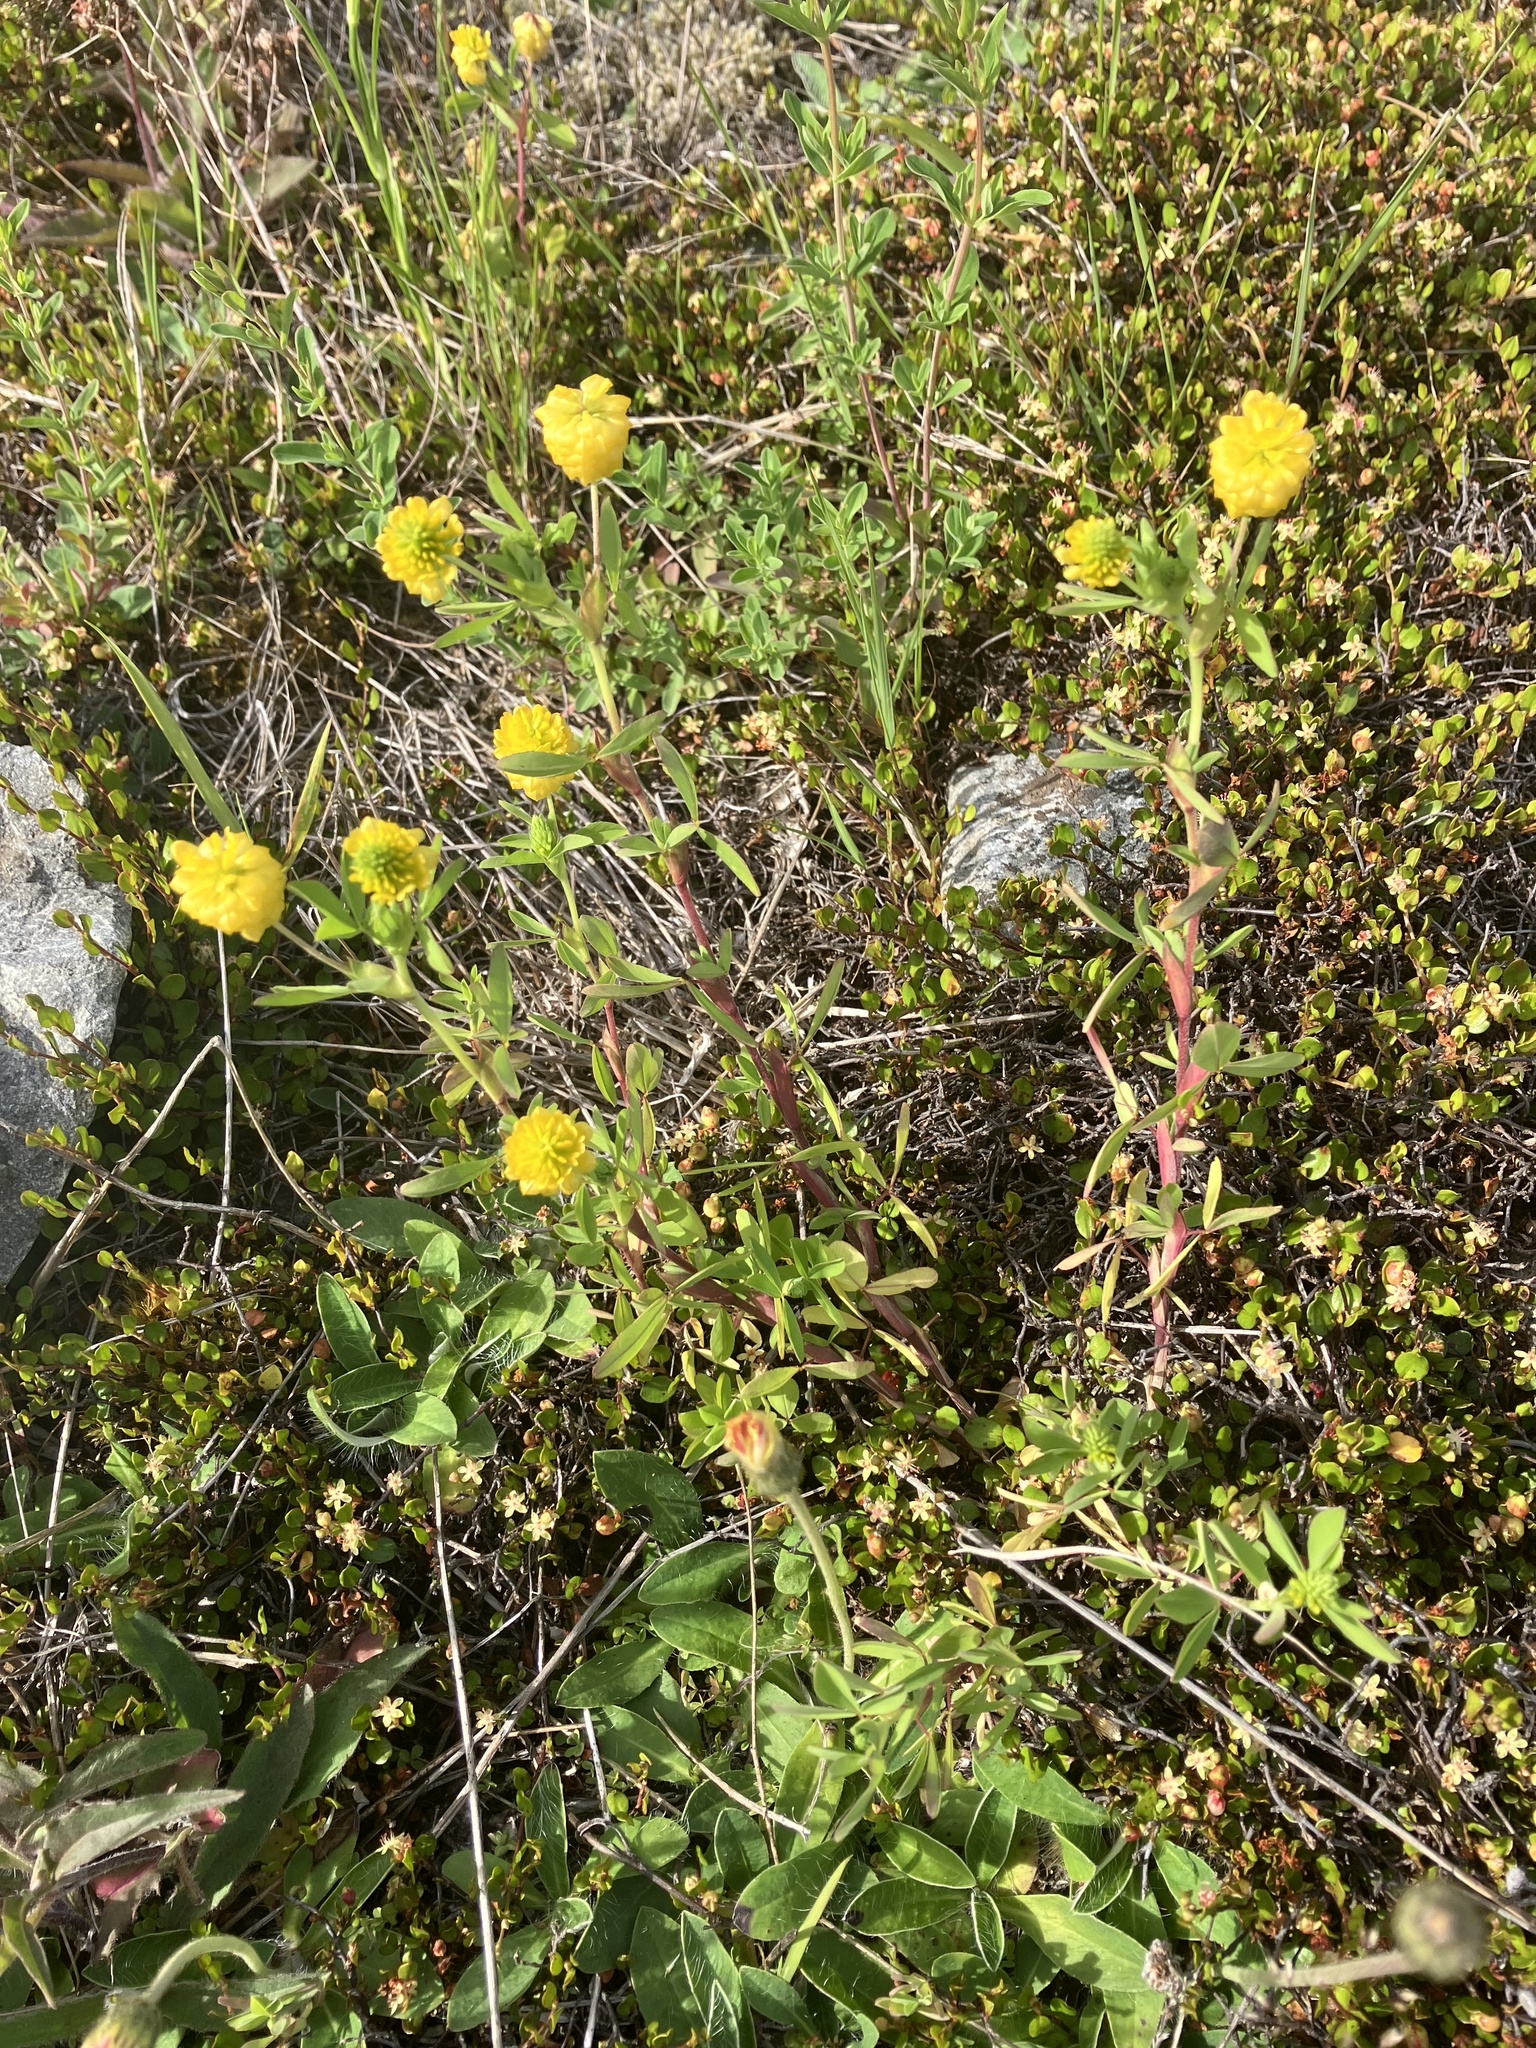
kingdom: Plantae
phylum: Tracheophyta
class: Magnoliopsida
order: Fabales
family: Fabaceae
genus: Trifolium
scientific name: Trifolium aureum
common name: Golden clover
